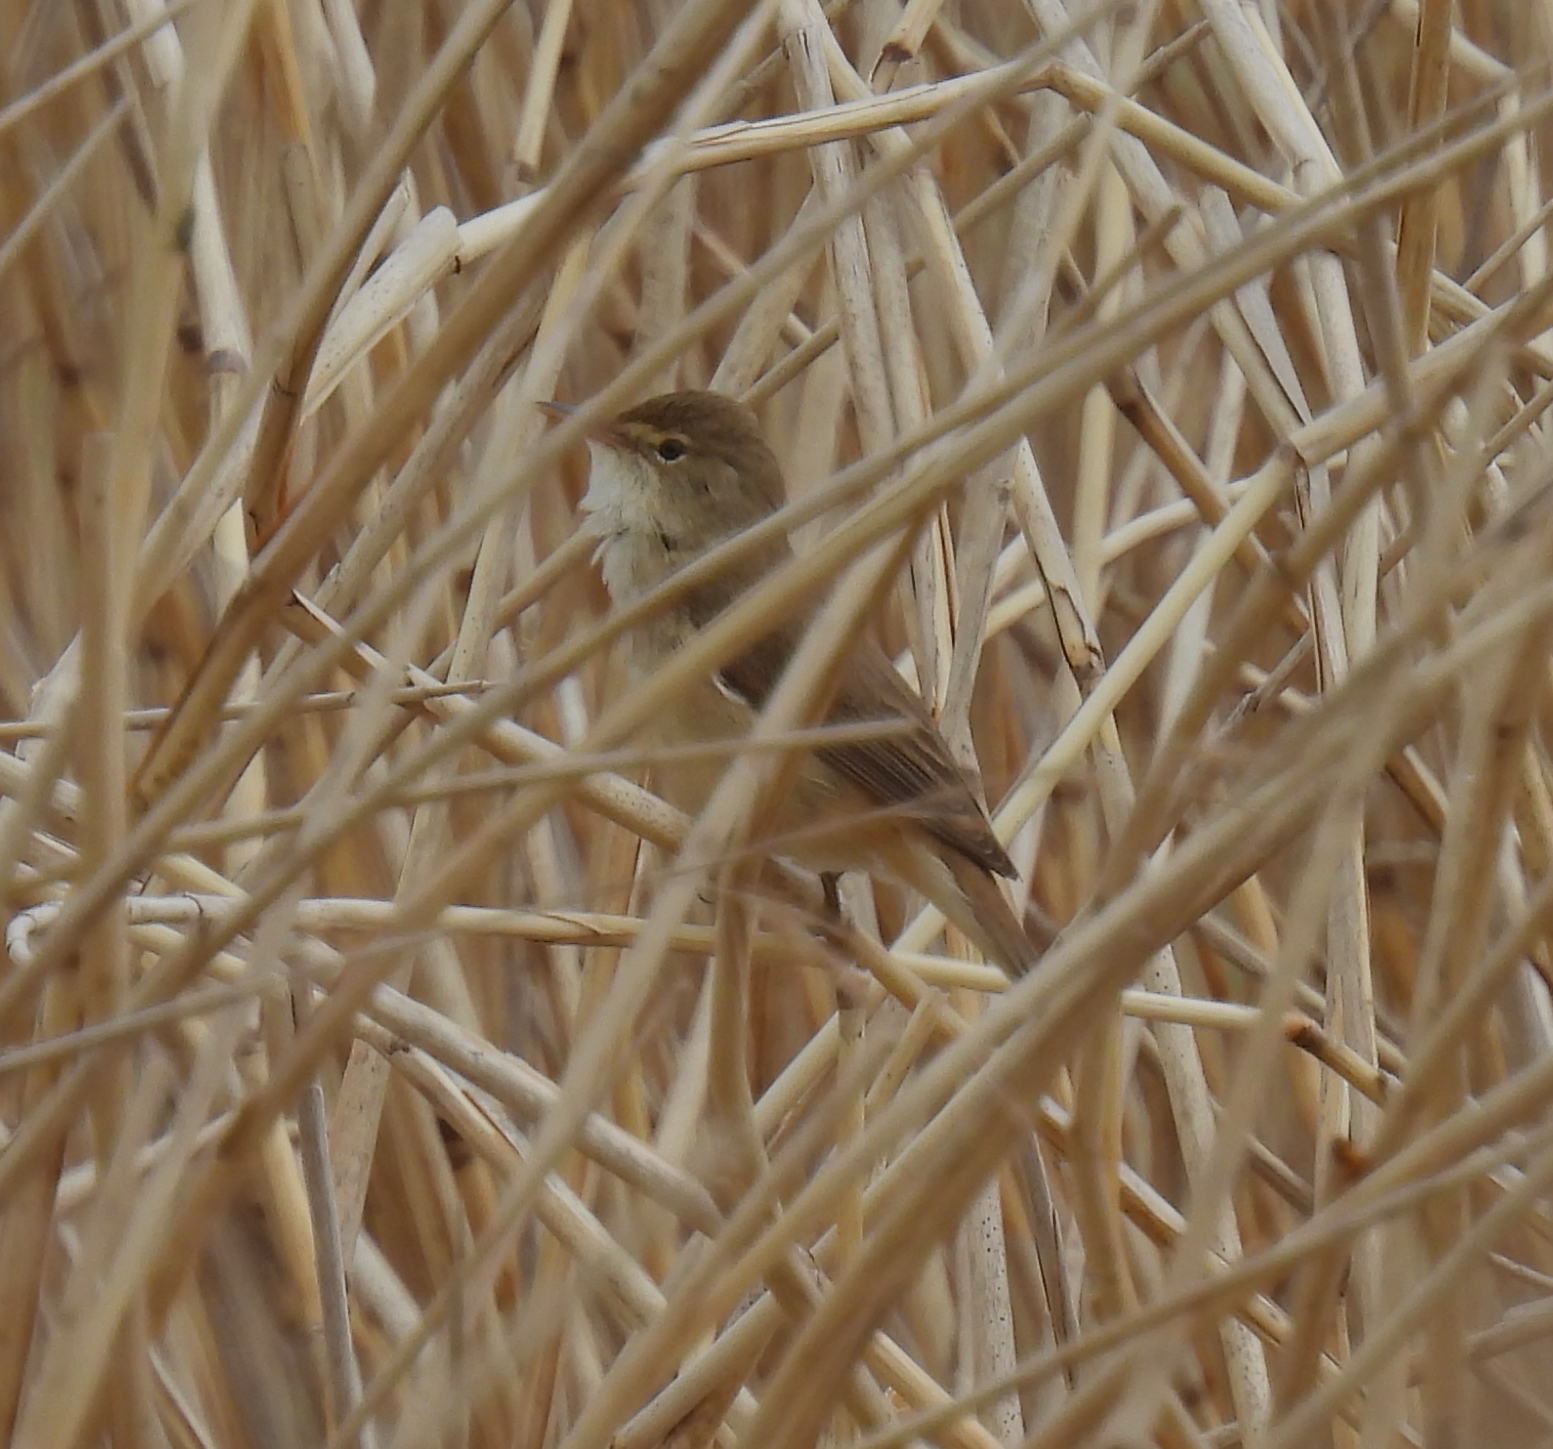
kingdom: Animalia
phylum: Chordata
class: Aves
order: Passeriformes
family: Acrocephalidae
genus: Acrocephalus
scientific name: Acrocephalus scirpaceus
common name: Eurasian reed warbler
